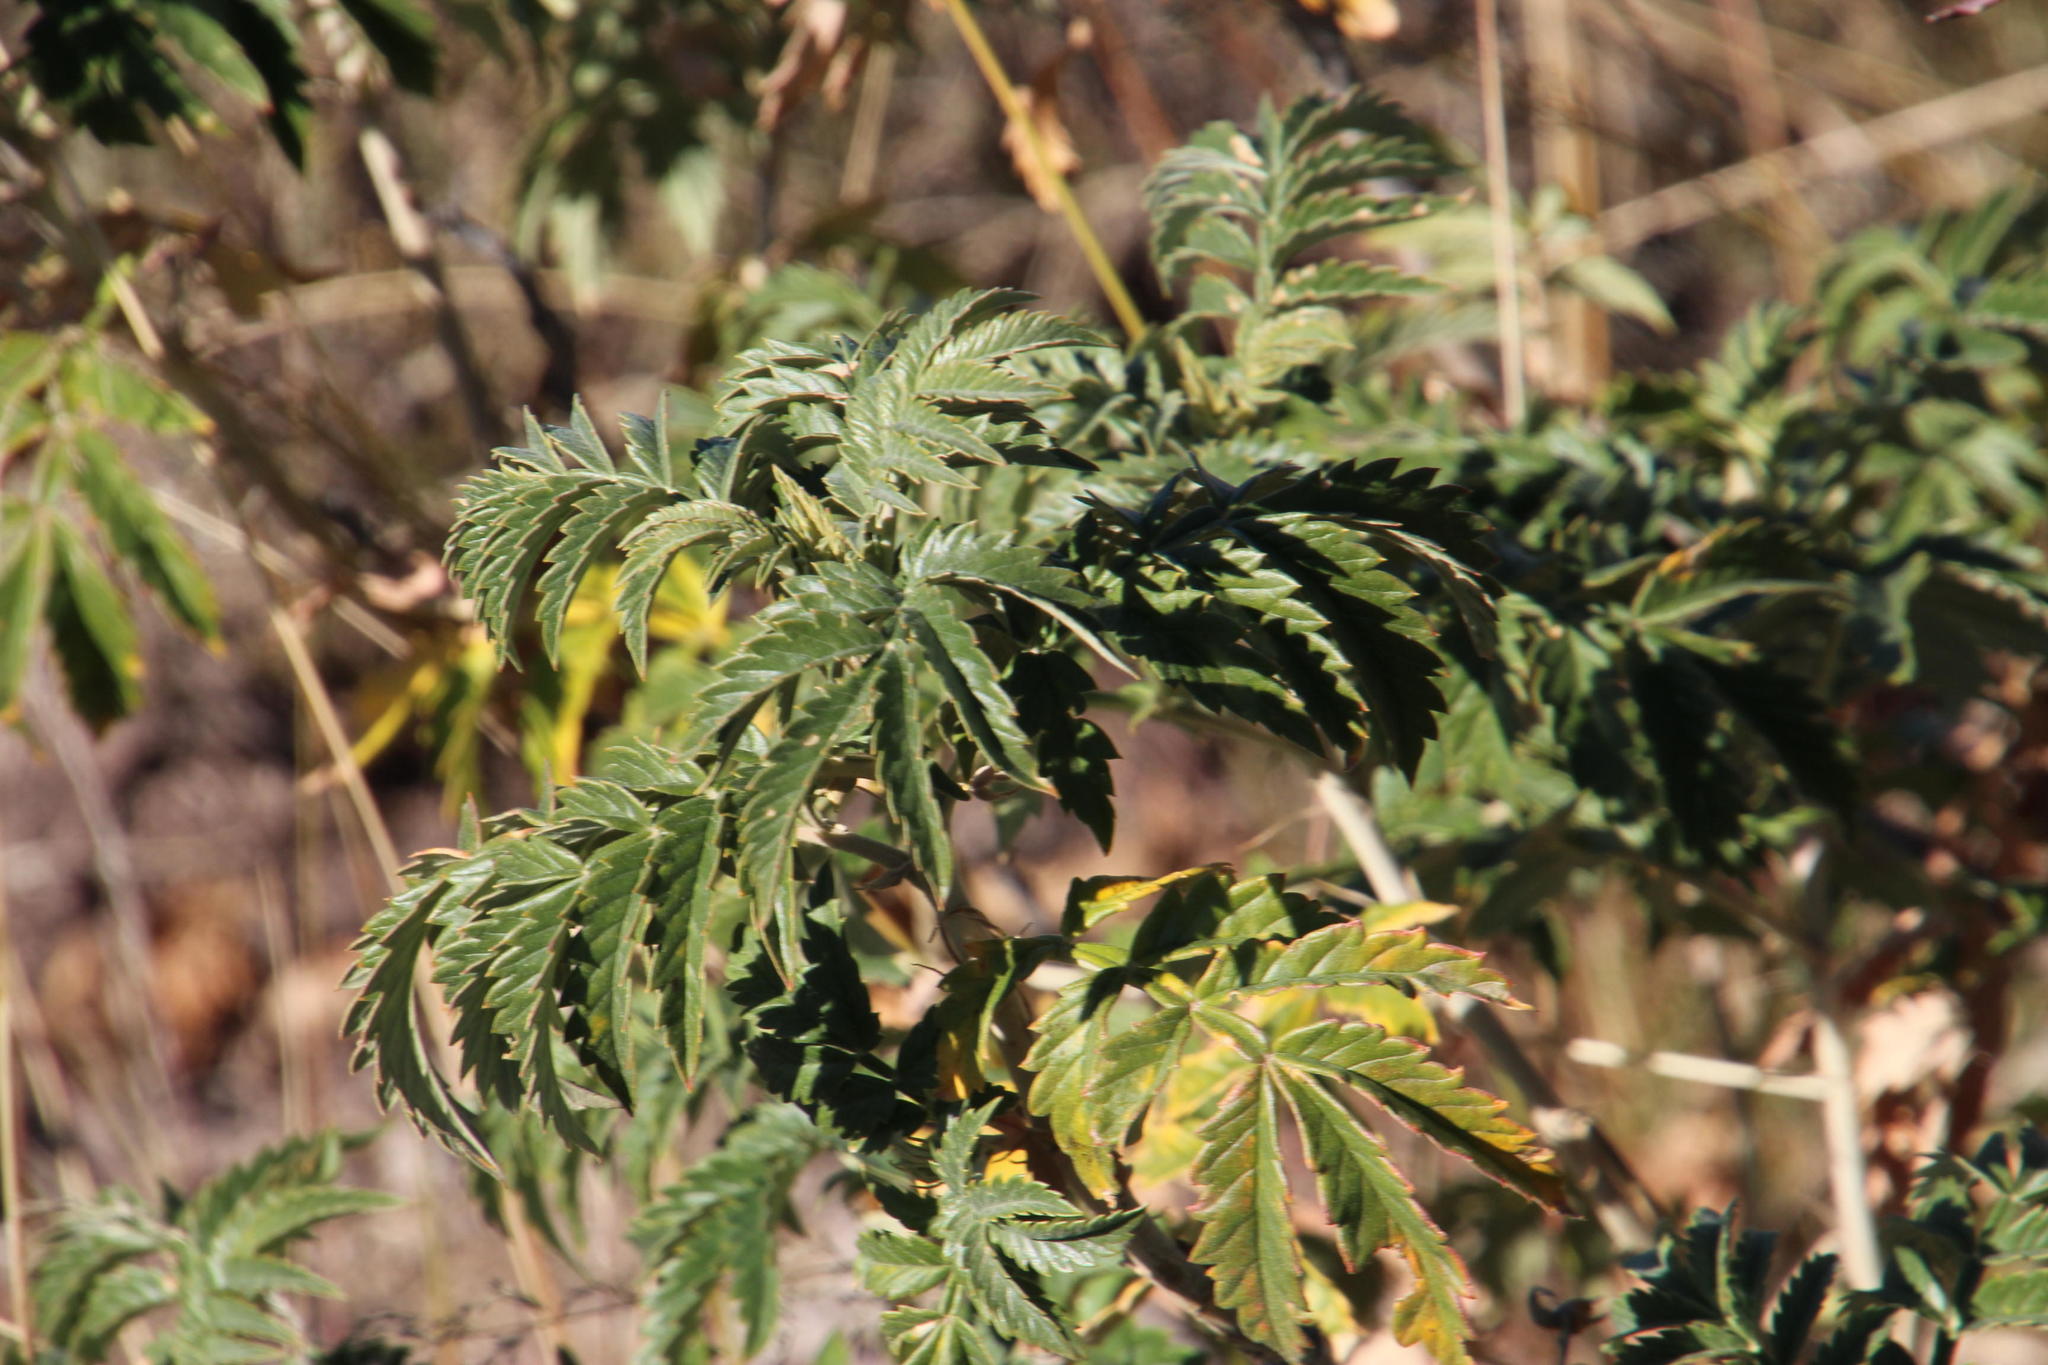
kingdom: Plantae
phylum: Tracheophyta
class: Magnoliopsida
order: Geraniales
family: Melianthaceae
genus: Melianthus
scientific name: Melianthus comosus
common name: Touch-me-not
